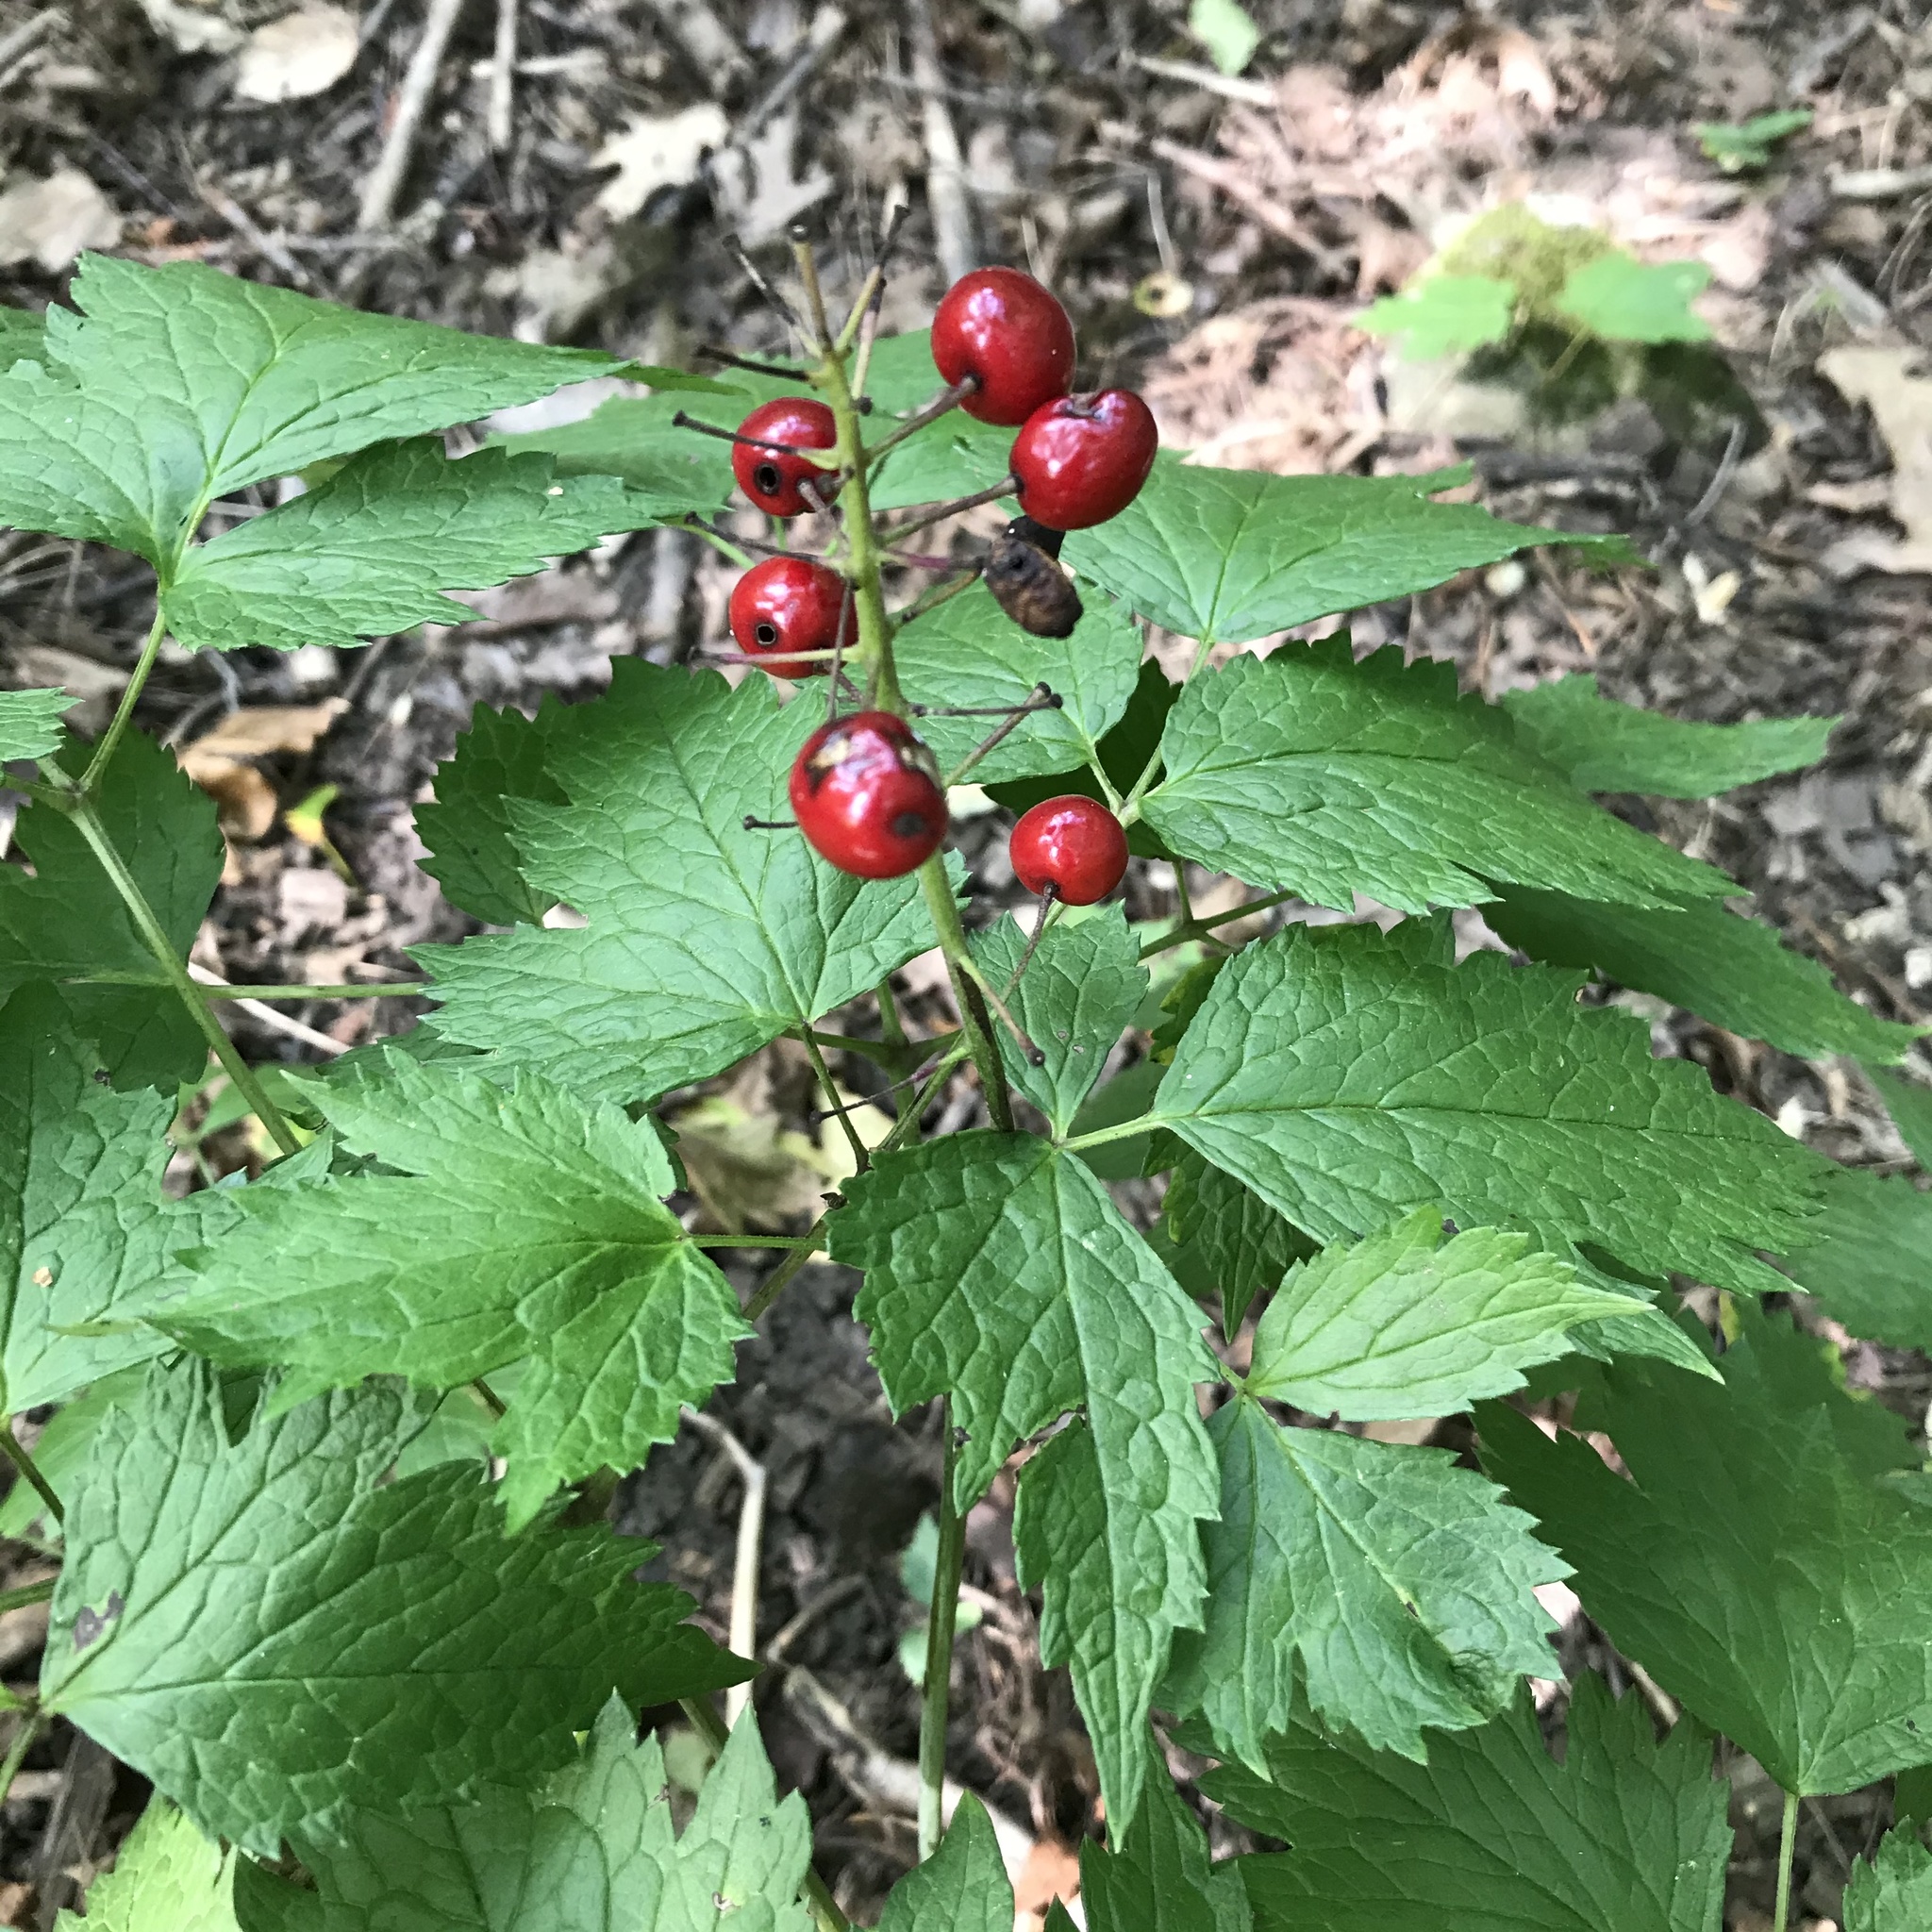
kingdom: Plantae
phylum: Tracheophyta
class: Magnoliopsida
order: Ranunculales
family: Ranunculaceae
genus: Actaea
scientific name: Actaea rubra
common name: Red baneberry
